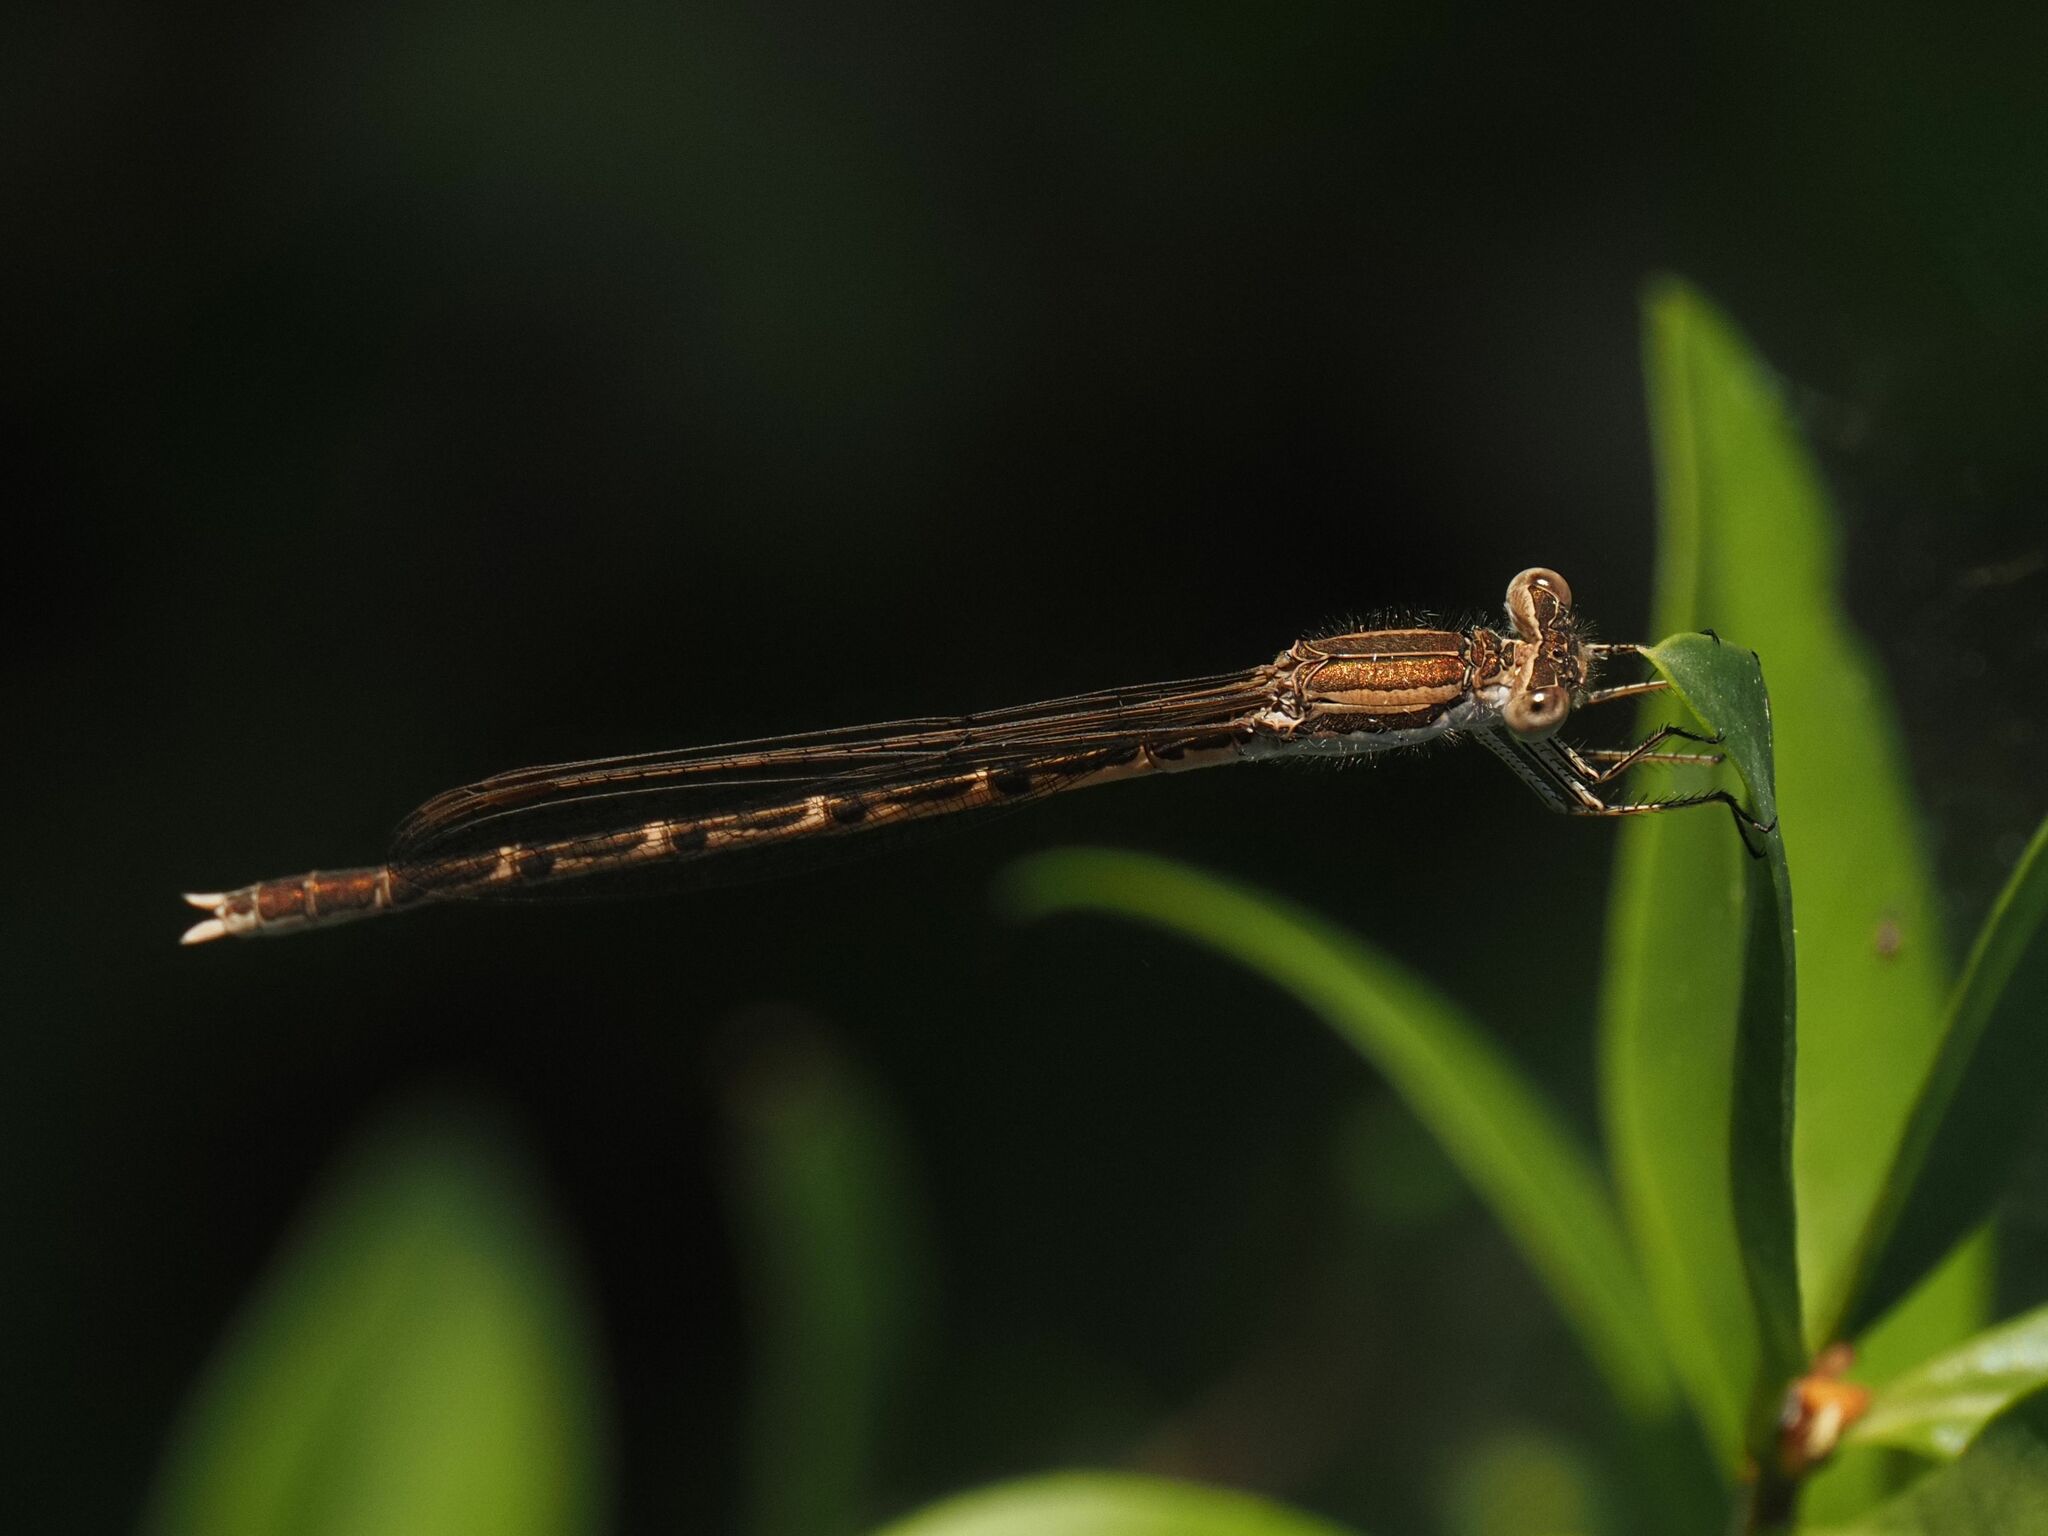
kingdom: Animalia
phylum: Arthropoda
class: Insecta
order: Odonata
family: Lestidae
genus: Sympecma
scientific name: Sympecma fusca
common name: Common winter damsel
